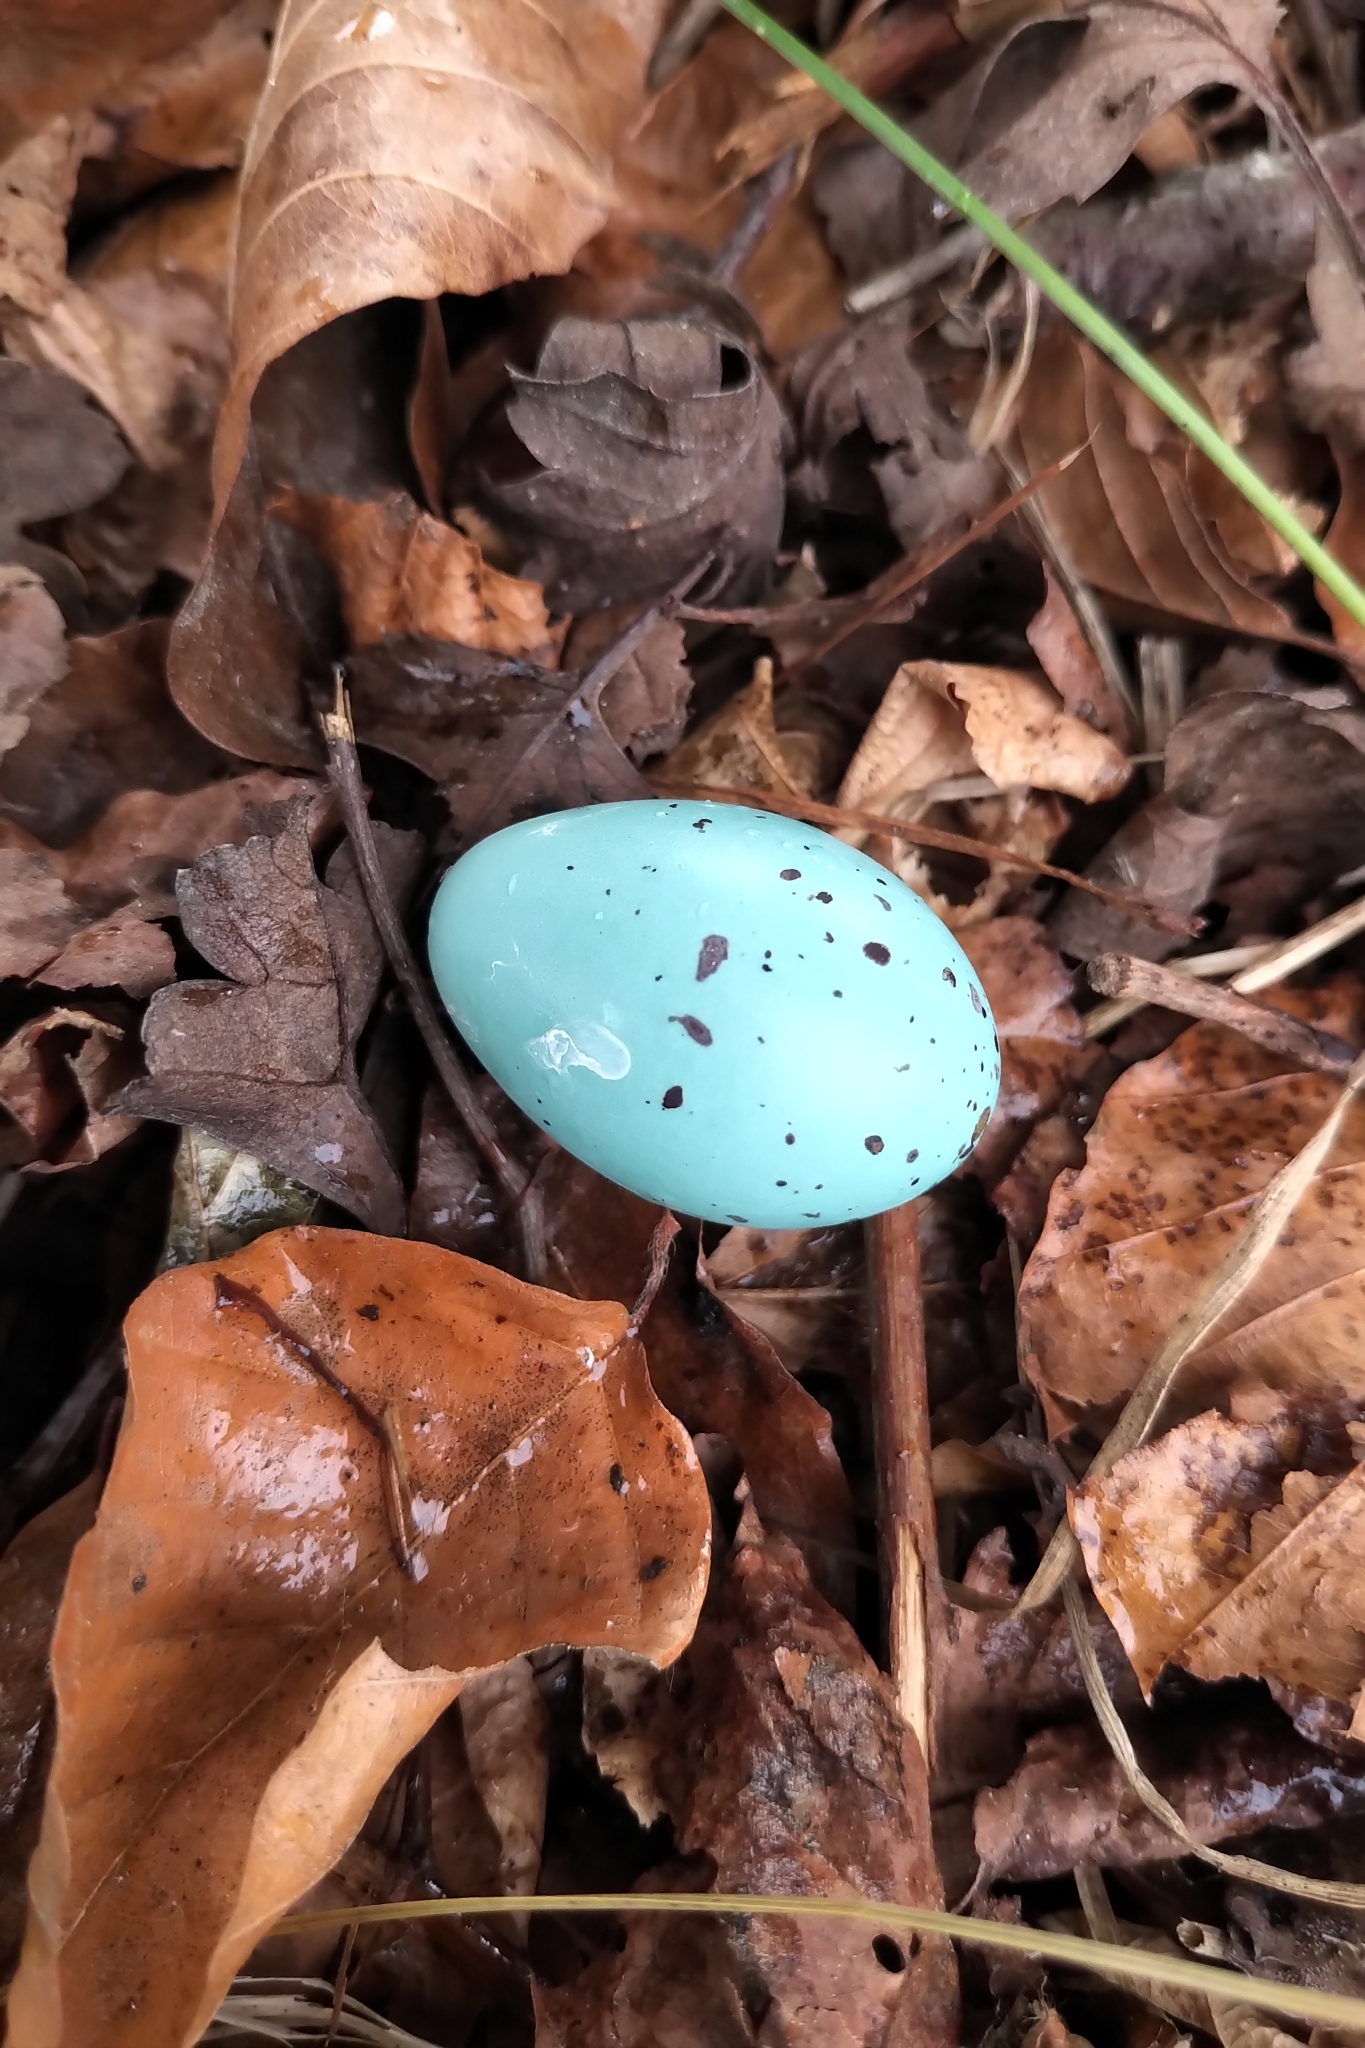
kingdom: Animalia
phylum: Chordata
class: Aves
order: Passeriformes
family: Turdidae
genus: Turdus
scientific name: Turdus philomelos
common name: Song thrush
